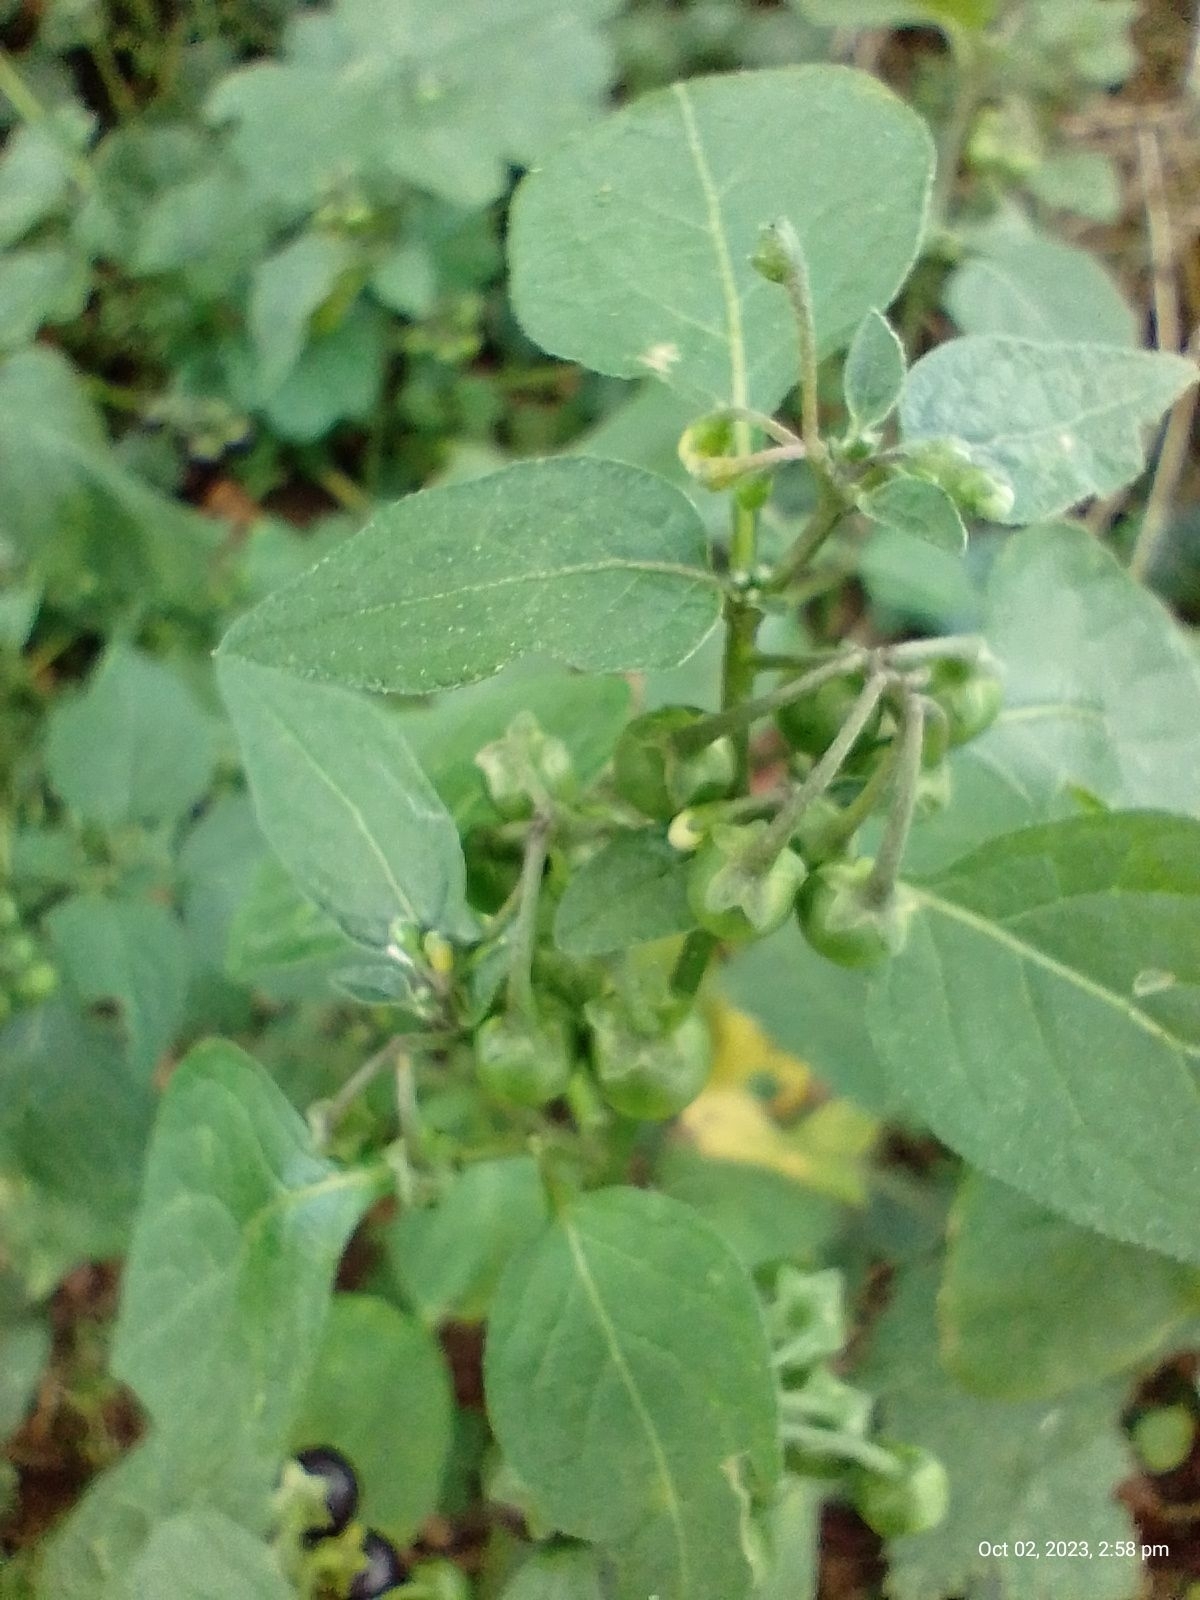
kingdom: Plantae
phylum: Tracheophyta
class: Magnoliopsida
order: Solanales
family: Solanaceae
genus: Solanum
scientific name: Solanum nigrum
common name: Black nightshade
